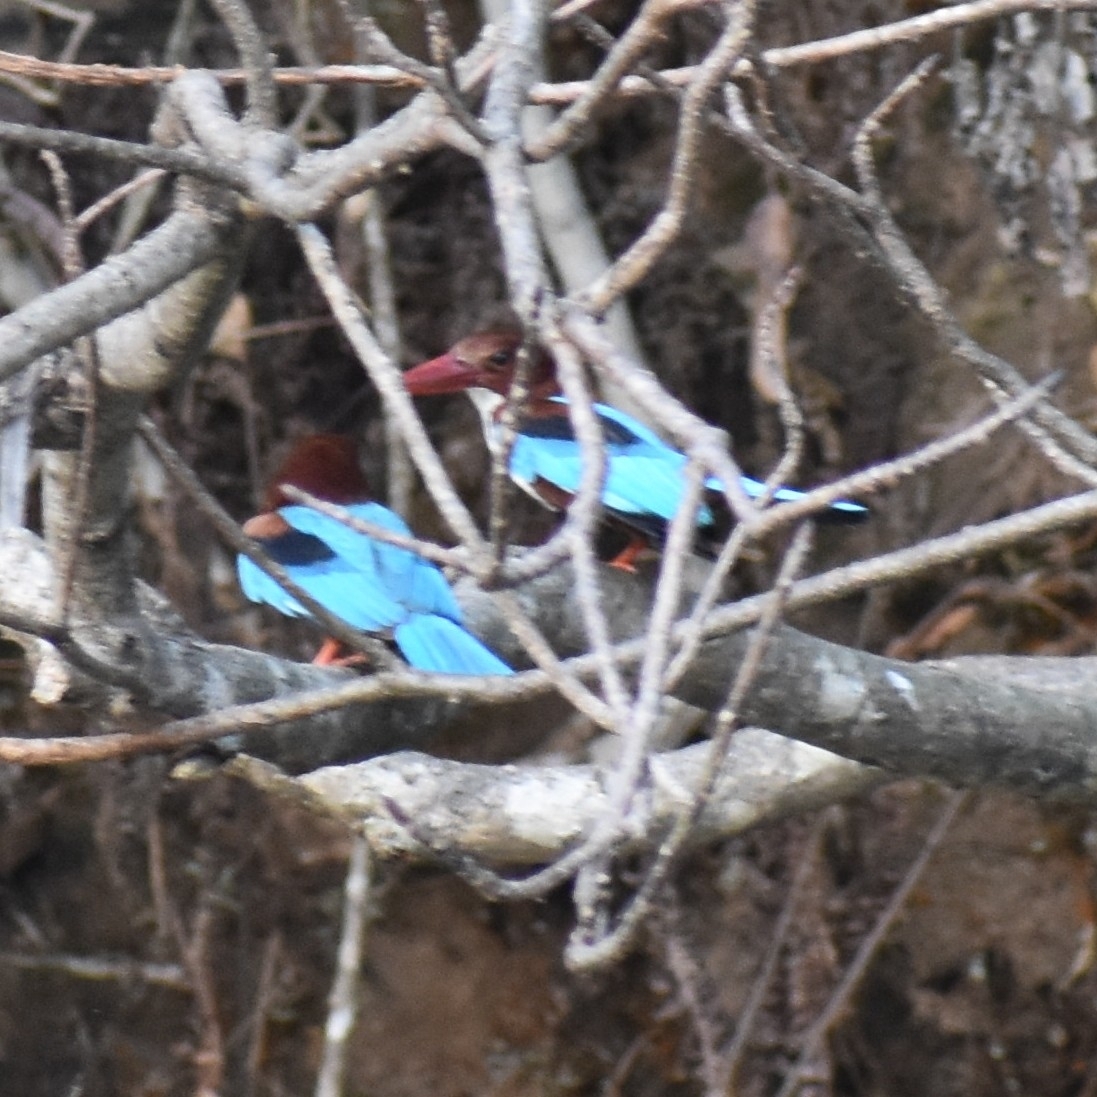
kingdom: Animalia
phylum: Chordata
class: Aves
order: Coraciiformes
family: Alcedinidae
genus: Halcyon
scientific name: Halcyon smyrnensis
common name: White-throated kingfisher
